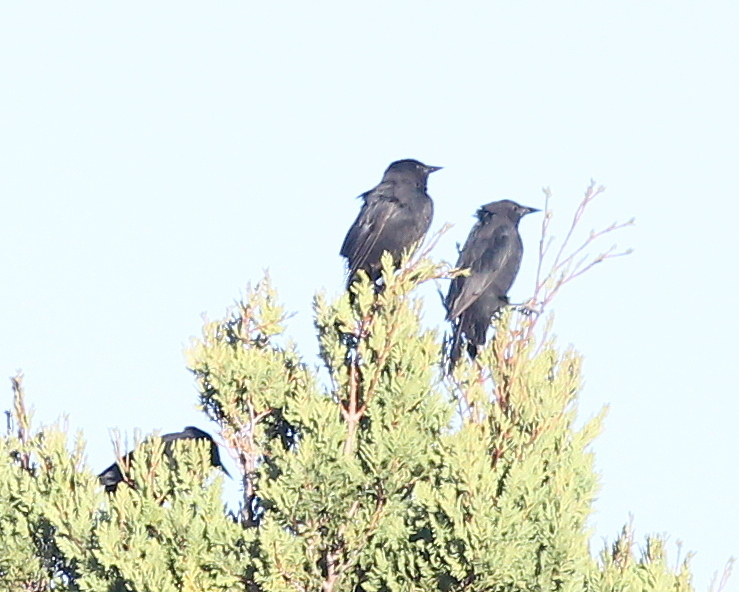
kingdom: Animalia
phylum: Chordata
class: Aves
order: Passeriformes
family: Icteridae
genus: Curaeus
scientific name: Curaeus curaeus
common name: Austral blackbird
